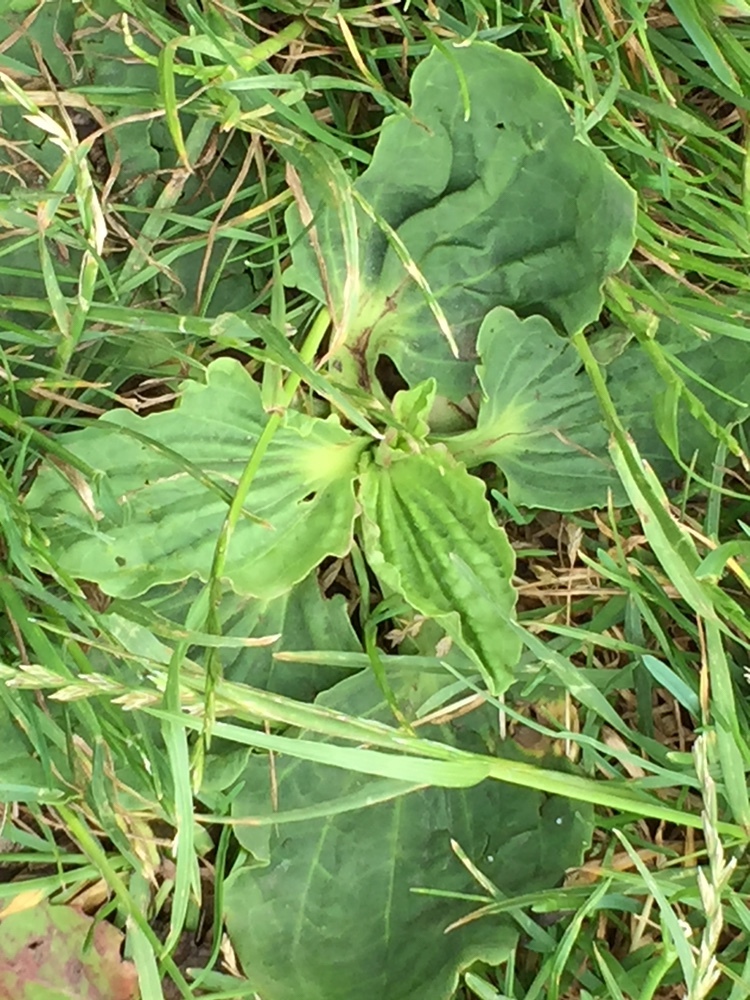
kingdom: Plantae
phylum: Tracheophyta
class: Magnoliopsida
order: Lamiales
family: Plantaginaceae
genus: Plantago
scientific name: Plantago major
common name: Common plantain
